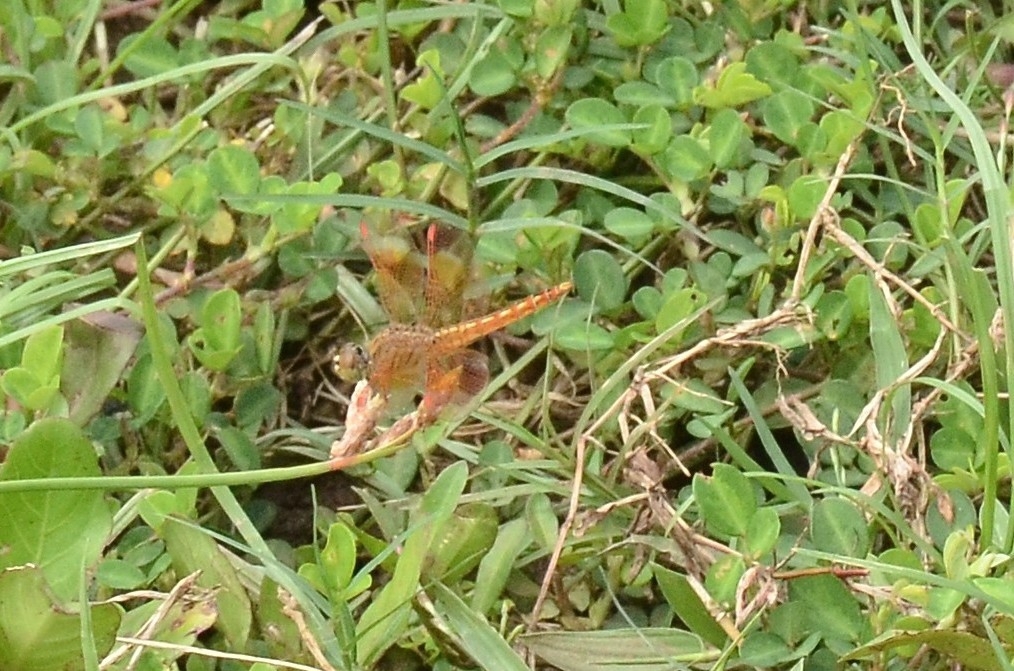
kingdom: Animalia
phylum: Arthropoda
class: Insecta
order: Odonata
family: Libellulidae
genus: Brachythemis
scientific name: Brachythemis contaminata
